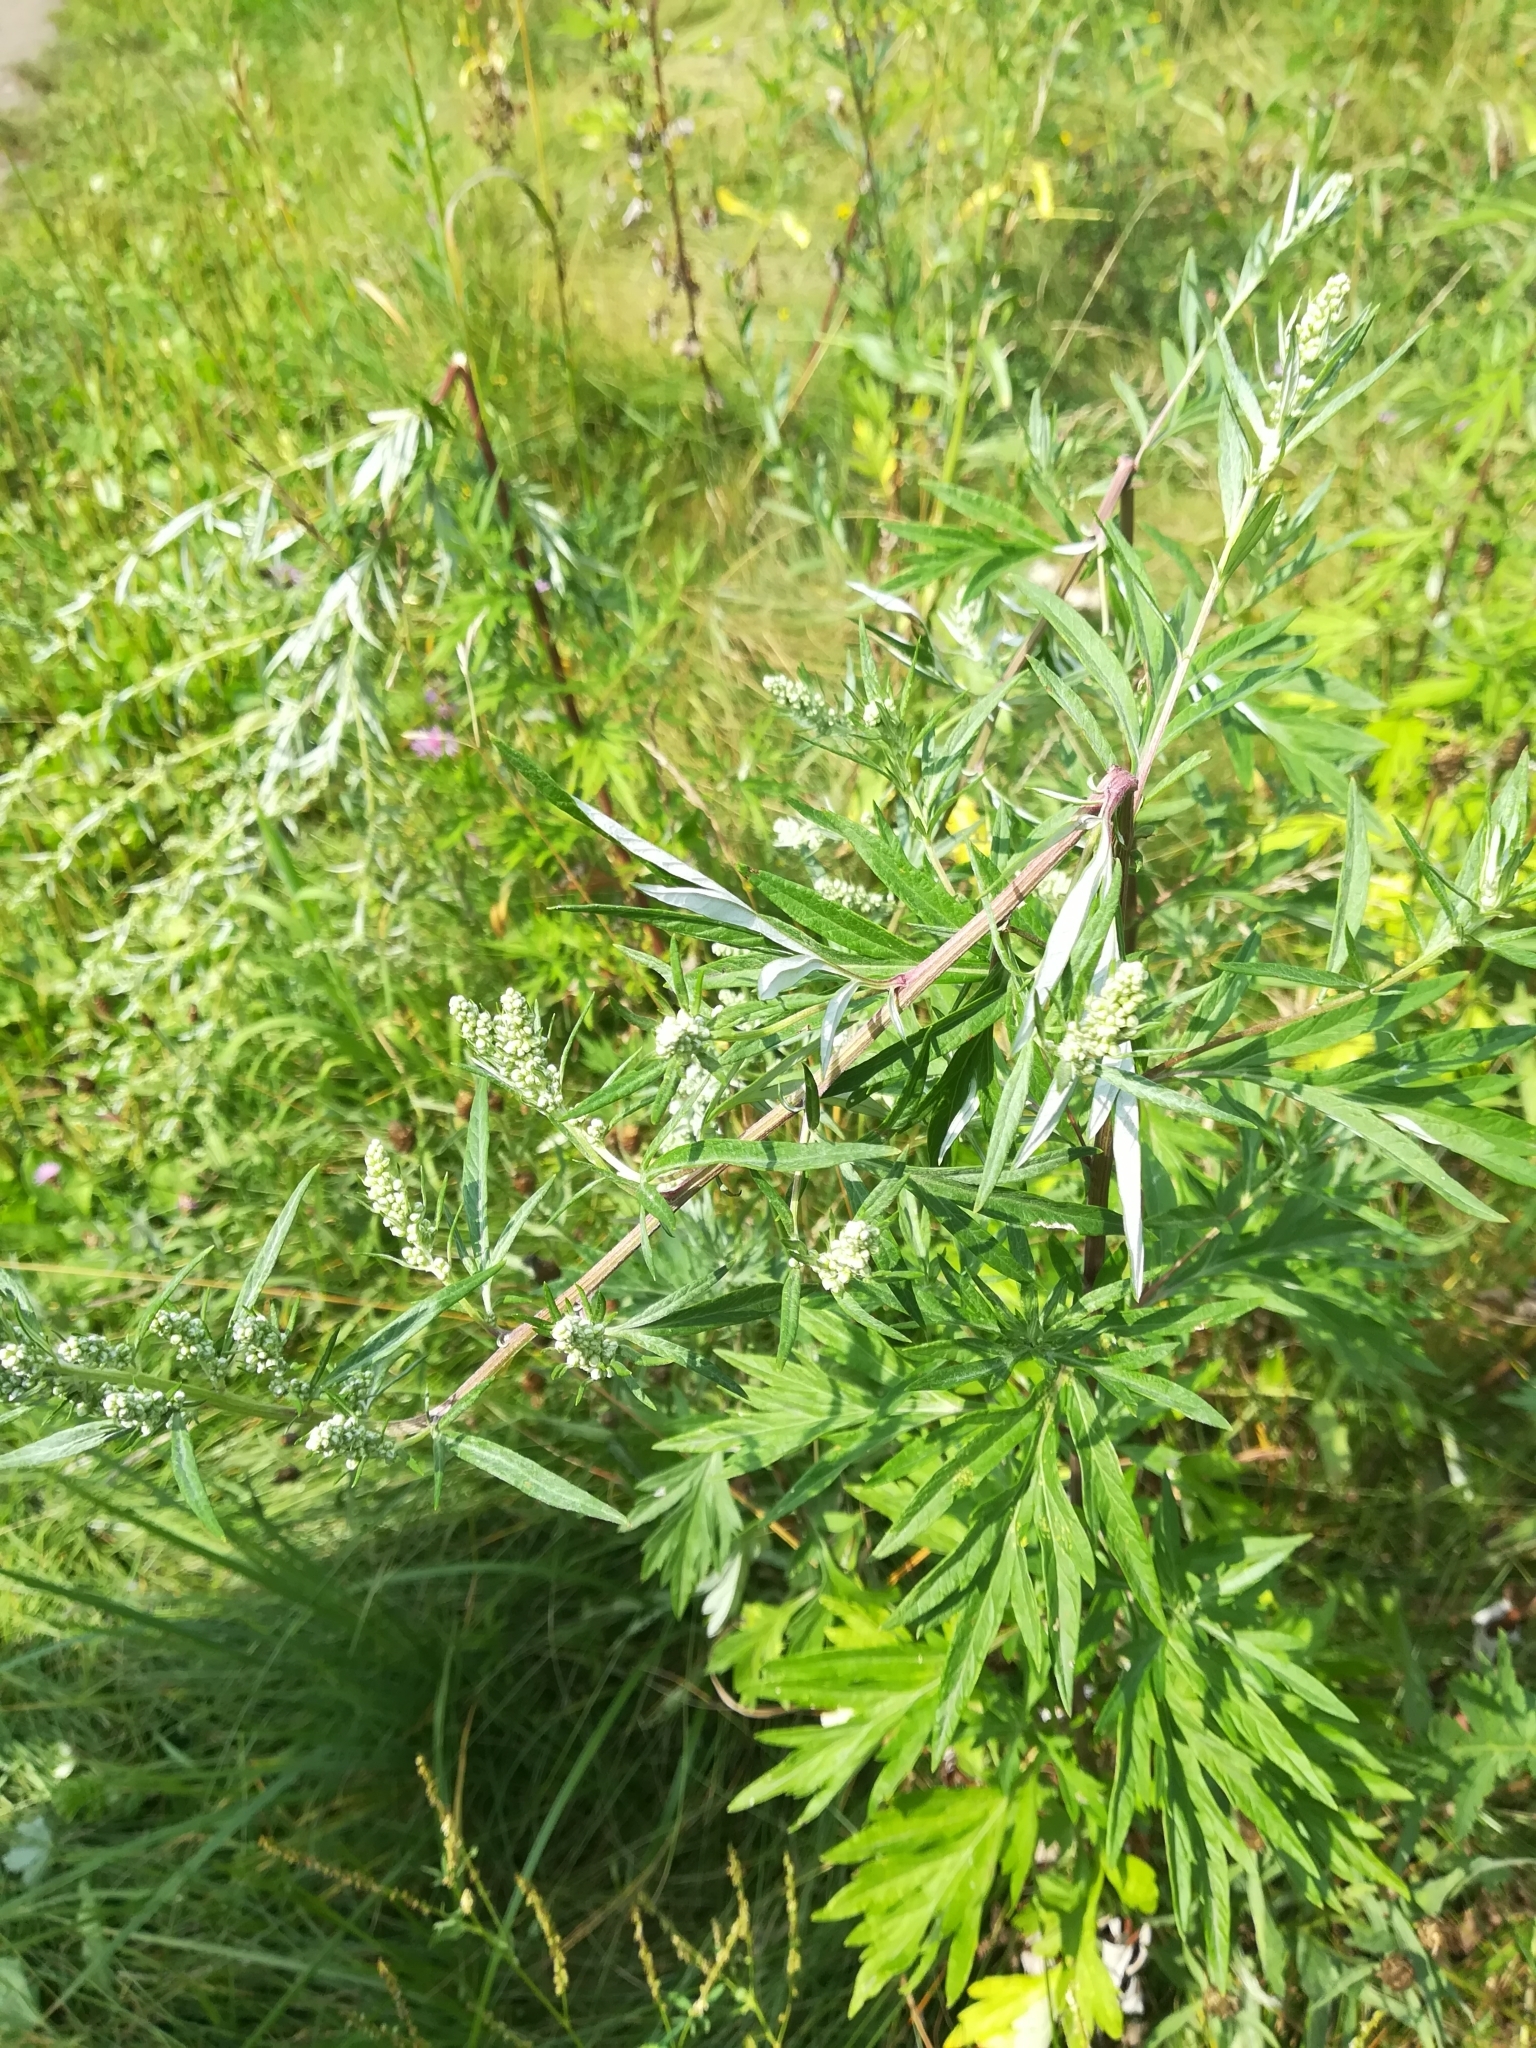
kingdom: Plantae
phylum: Tracheophyta
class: Magnoliopsida
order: Asterales
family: Asteraceae
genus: Artemisia
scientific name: Artemisia vulgaris
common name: Mugwort
